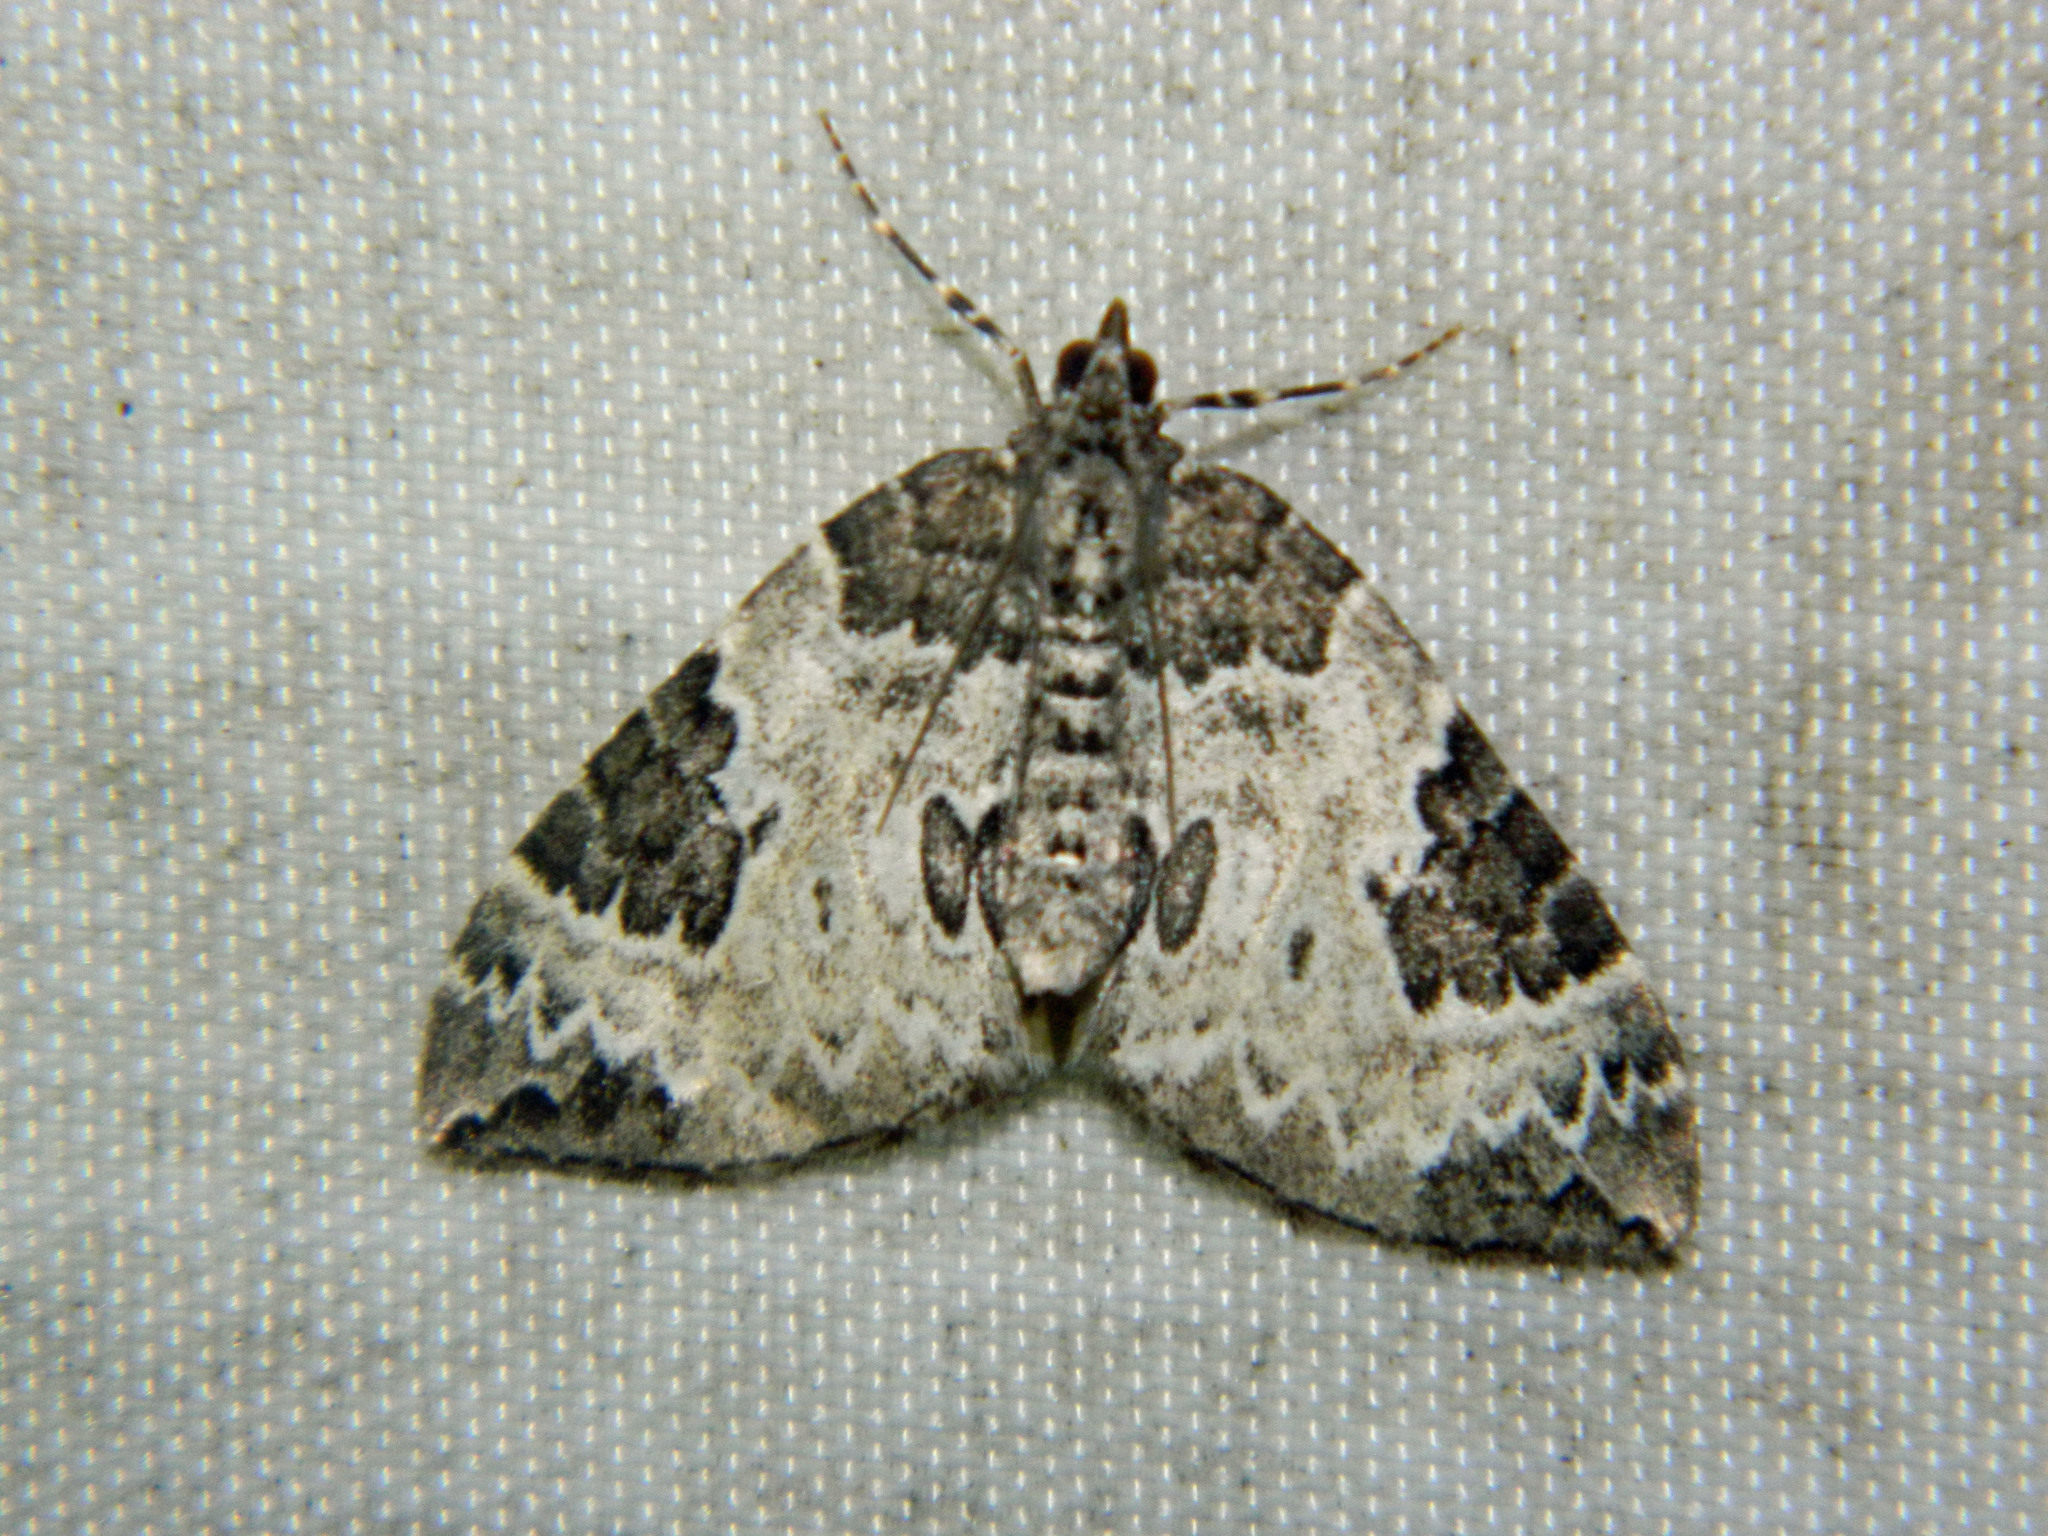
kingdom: Animalia
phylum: Arthropoda
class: Insecta
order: Lepidoptera
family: Geometridae
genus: Eulithis
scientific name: Eulithis explanata
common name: White eulithis
